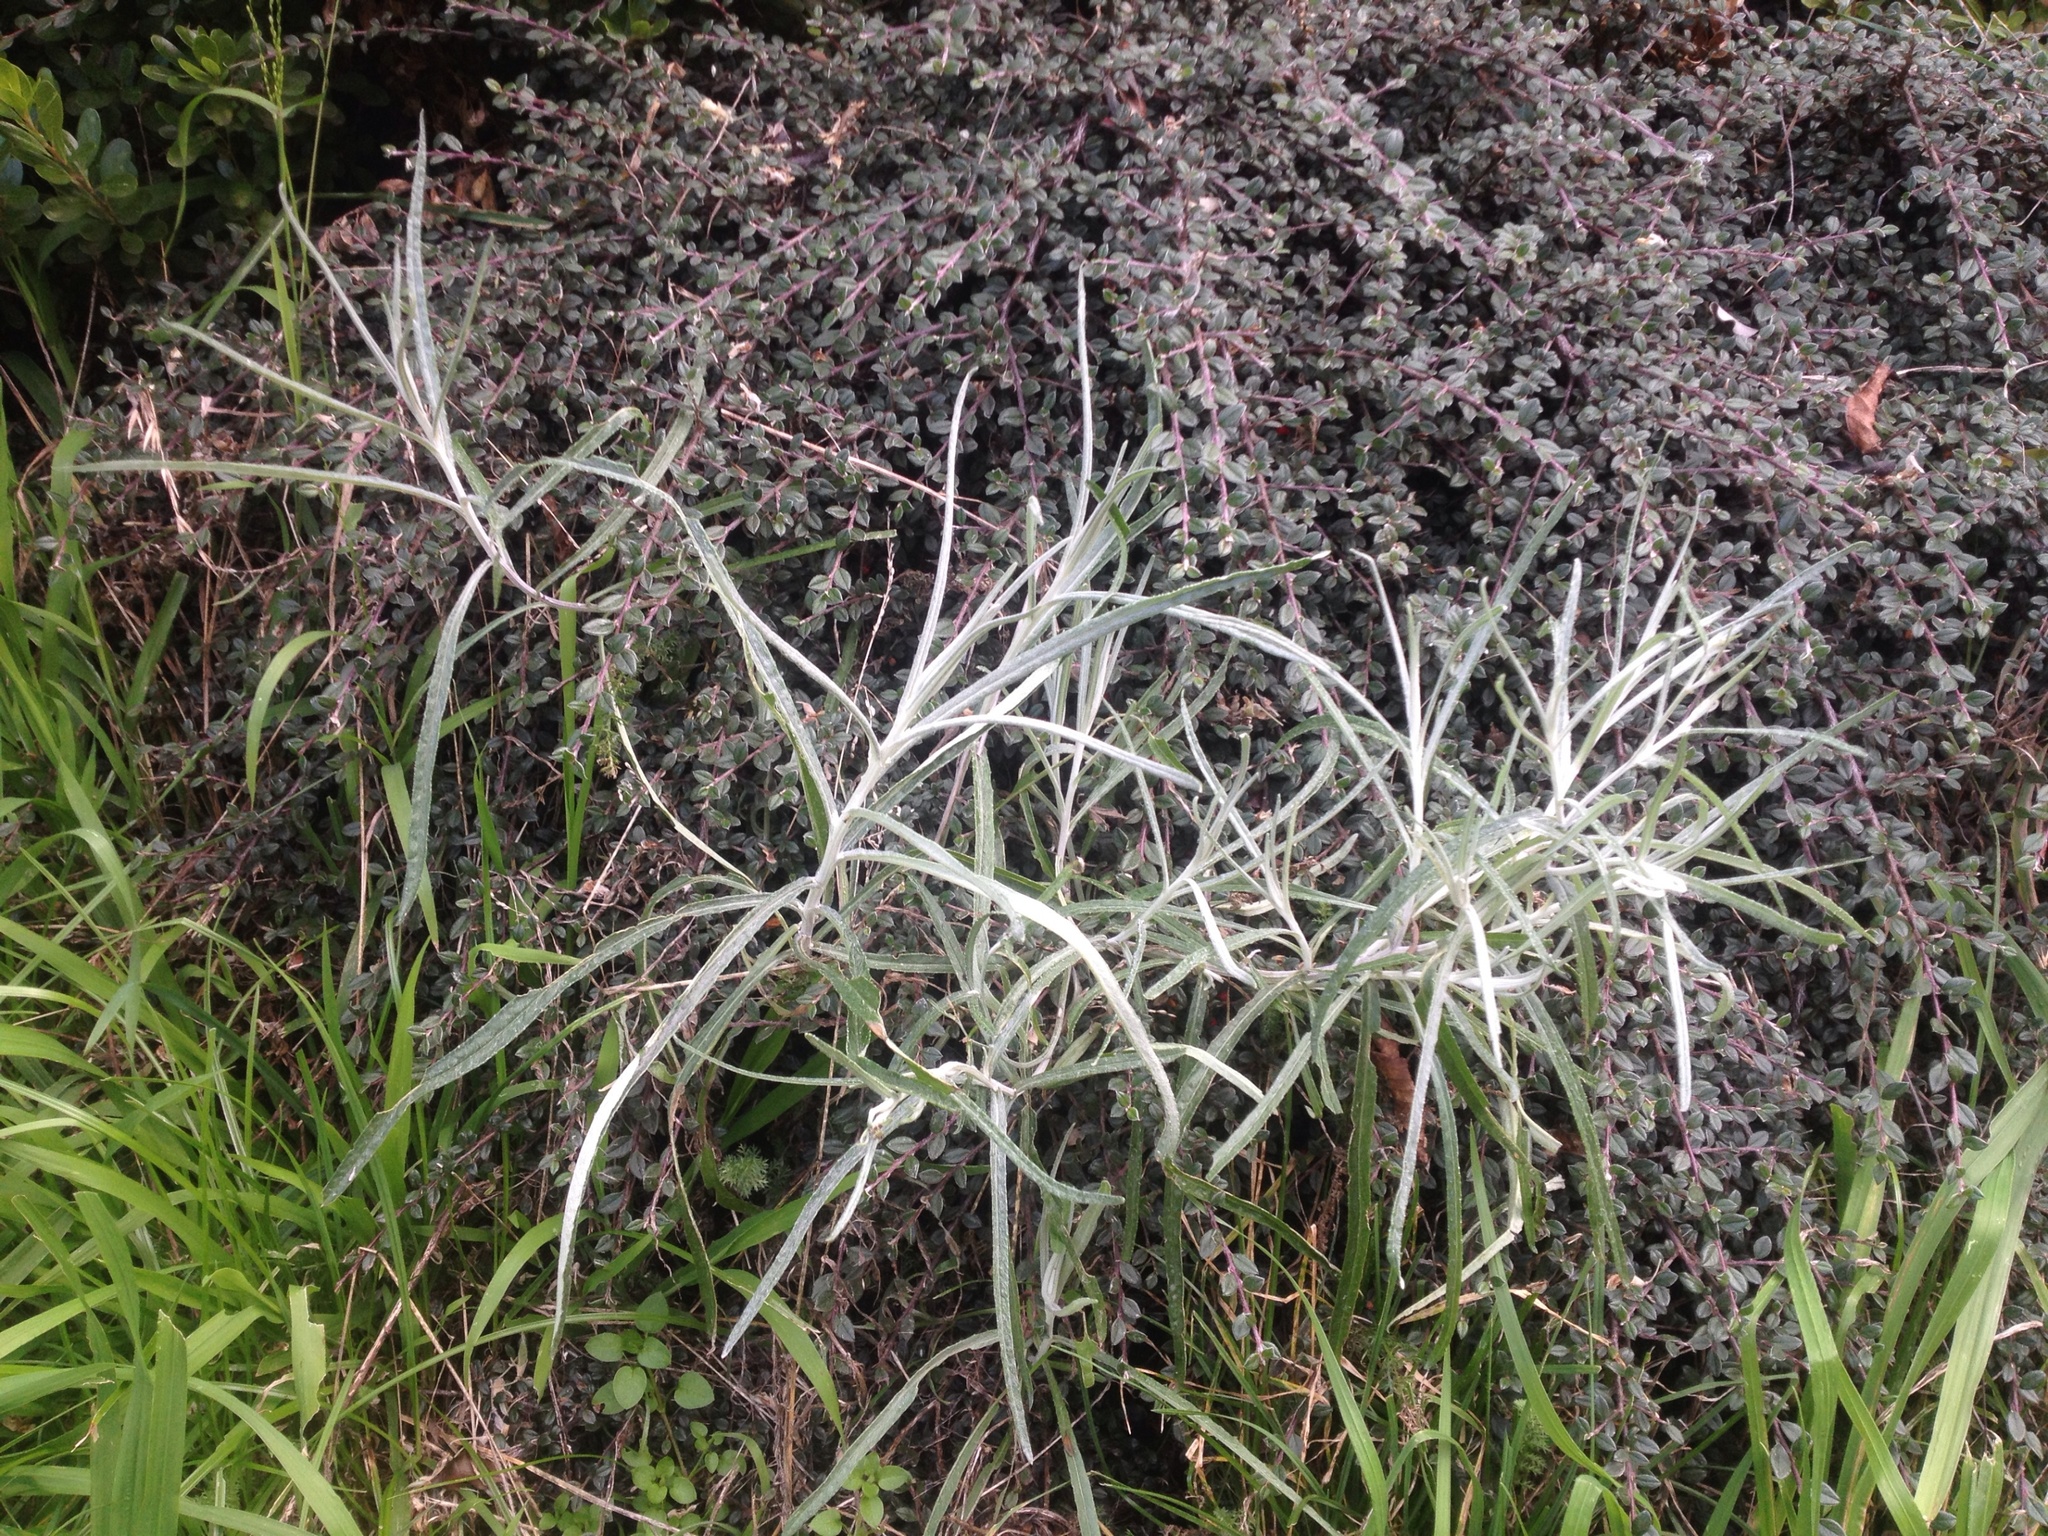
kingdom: Plantae
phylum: Tracheophyta
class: Magnoliopsida
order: Asterales
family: Asteraceae
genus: Senecio
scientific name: Senecio quadridentatus
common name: Cotton fireweed
